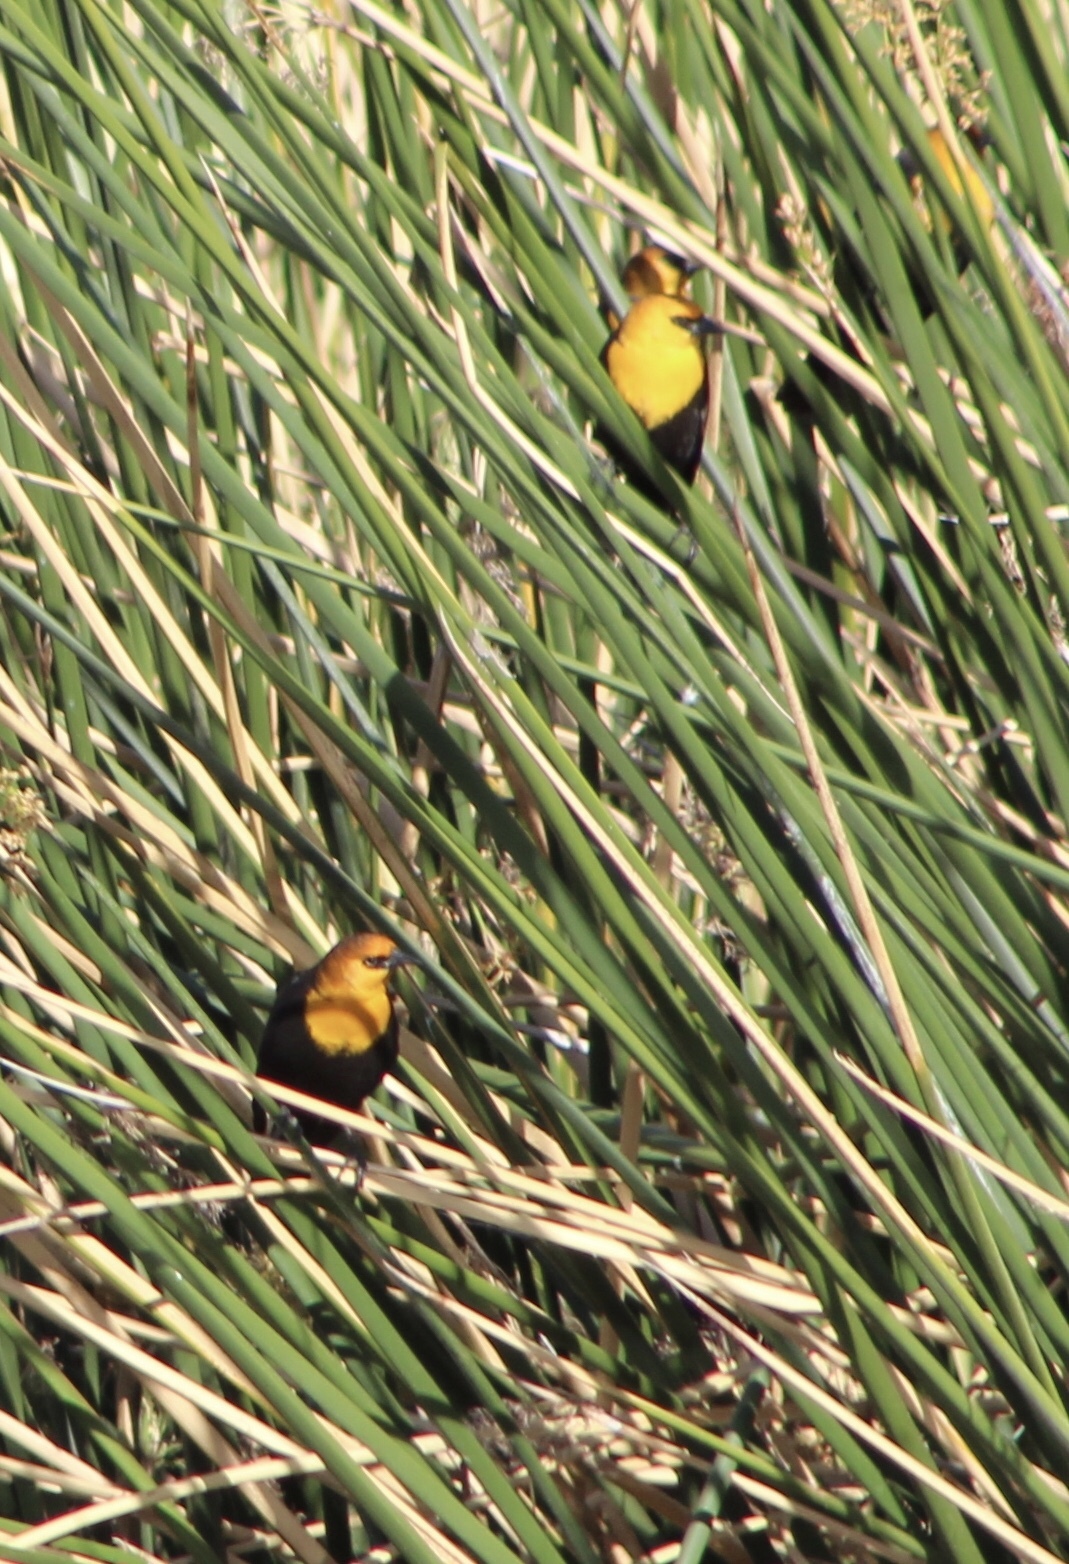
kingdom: Animalia
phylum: Chordata
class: Aves
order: Passeriformes
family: Icteridae
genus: Xanthocephalus
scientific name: Xanthocephalus xanthocephalus
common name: Yellow-headed blackbird
